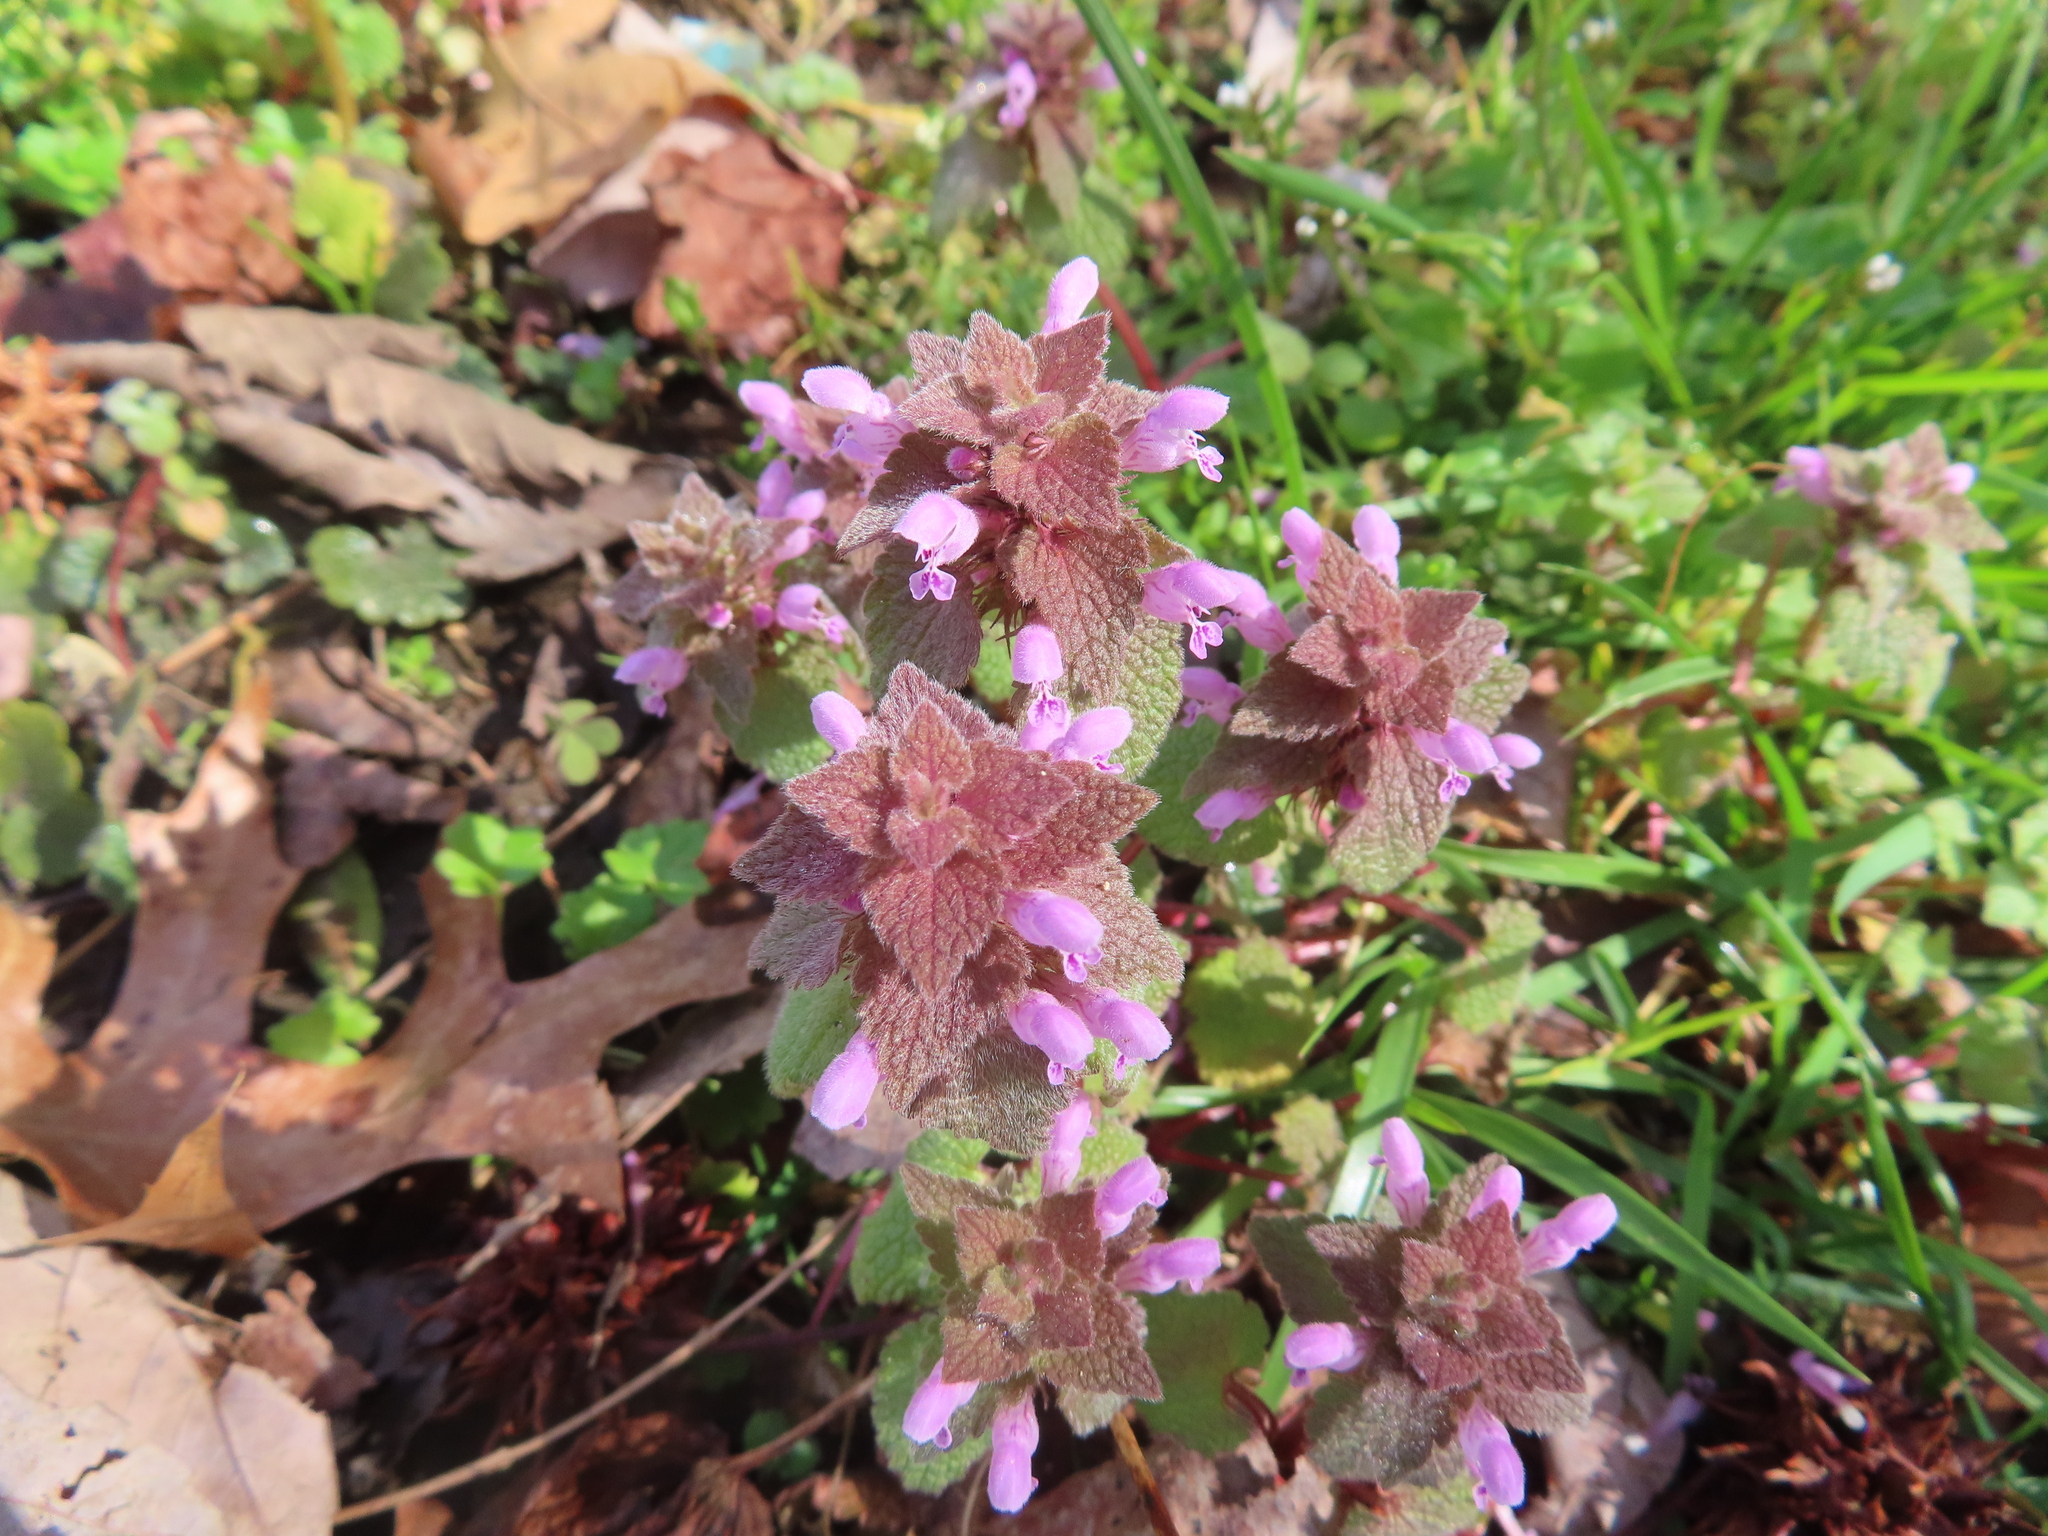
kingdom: Plantae
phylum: Tracheophyta
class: Magnoliopsida
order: Lamiales
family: Lamiaceae
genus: Lamium
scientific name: Lamium purpureum
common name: Red dead-nettle
